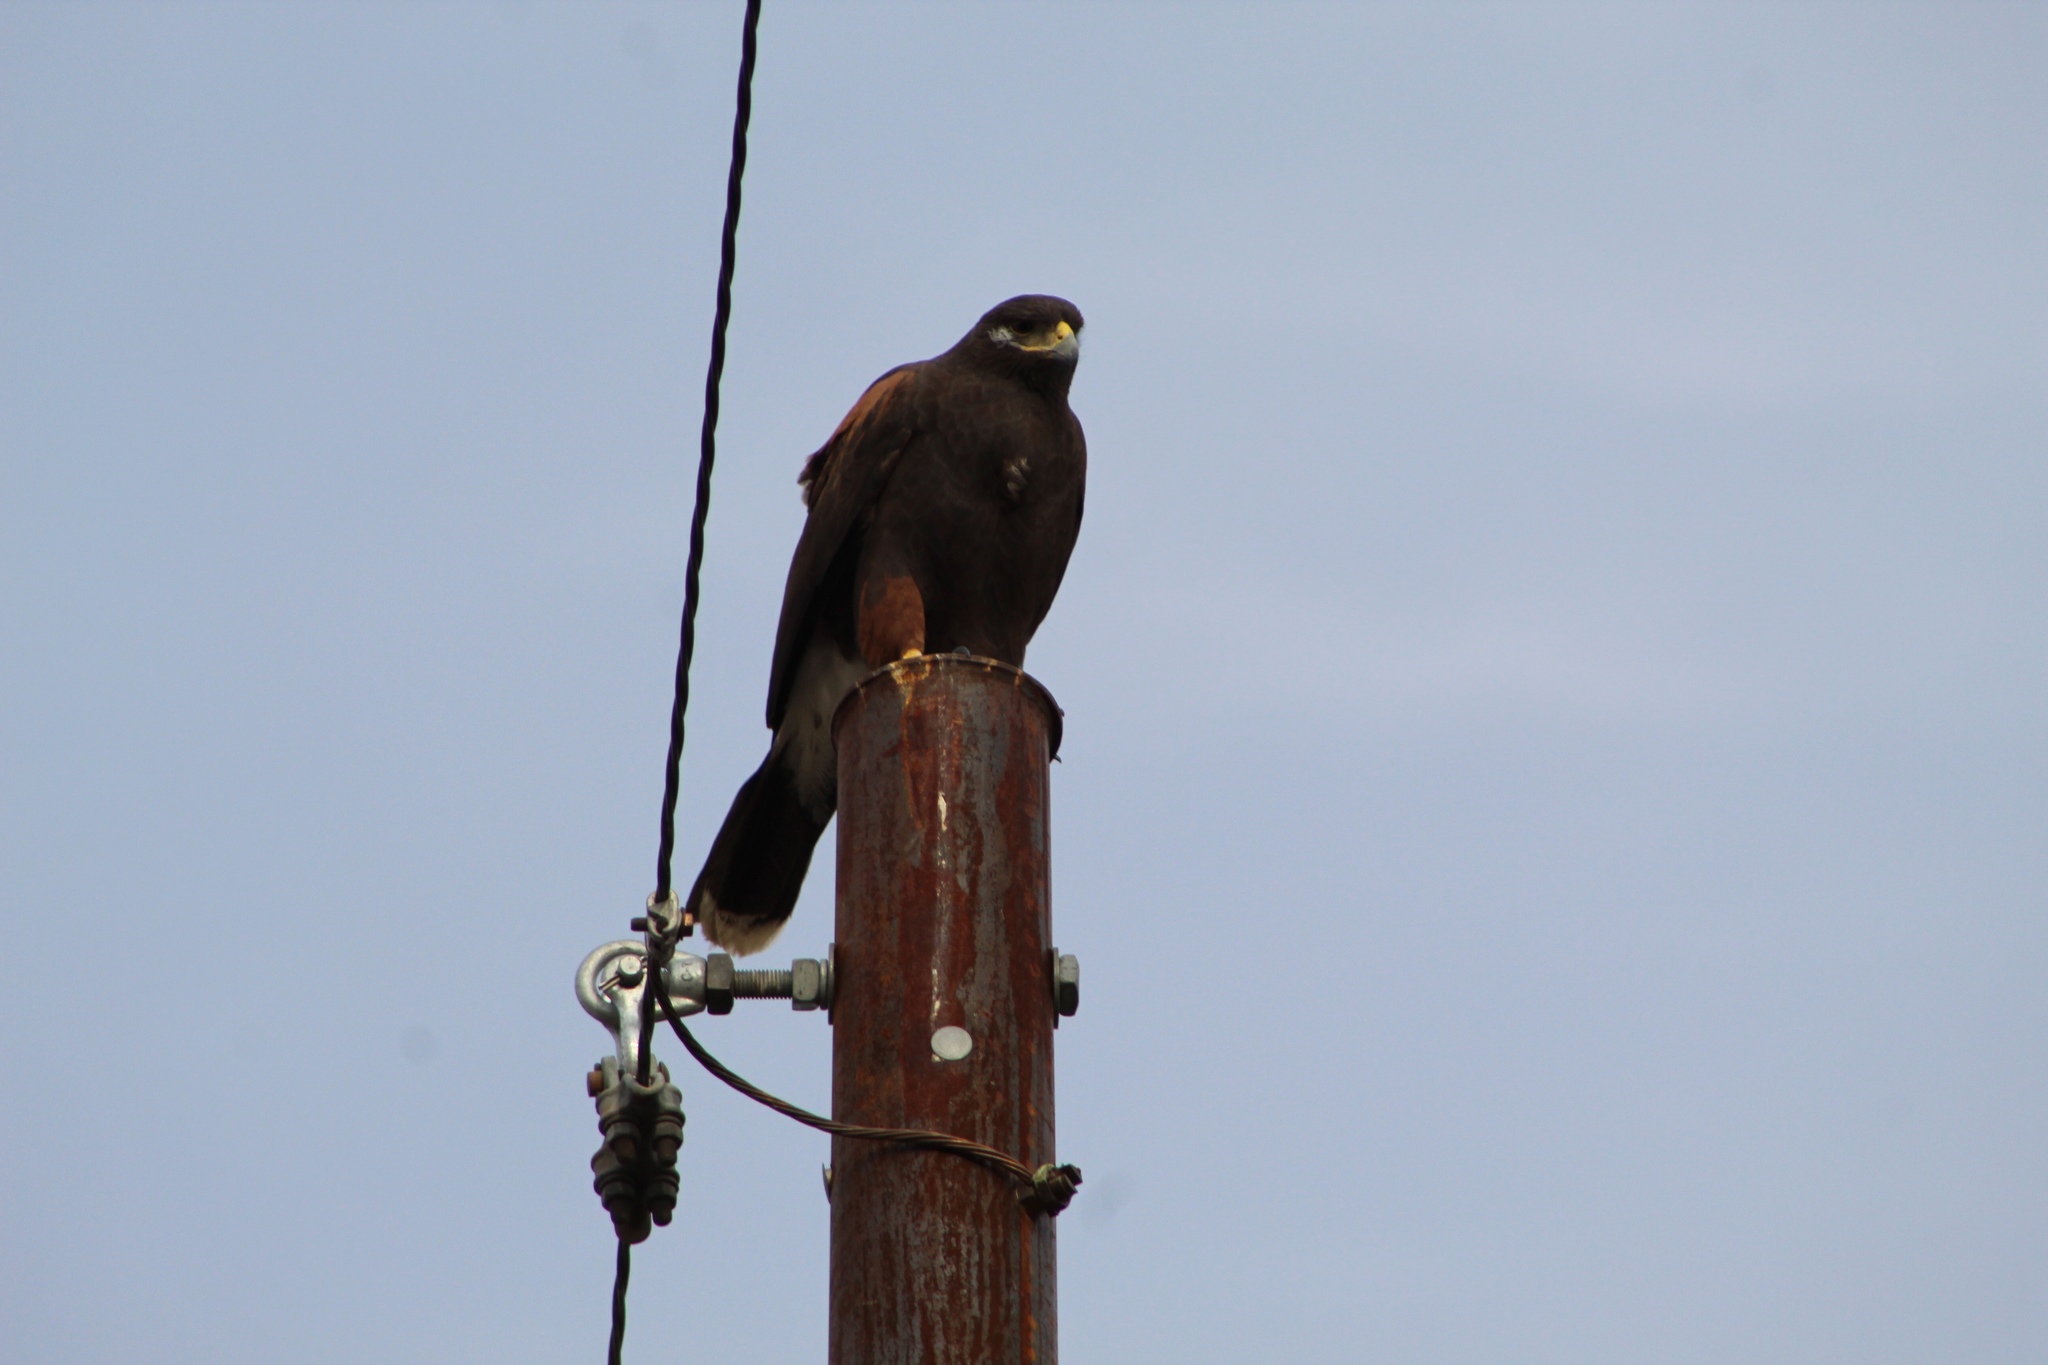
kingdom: Animalia
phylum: Chordata
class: Aves
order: Accipitriformes
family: Accipitridae
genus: Parabuteo
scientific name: Parabuteo unicinctus
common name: Harris's hawk
